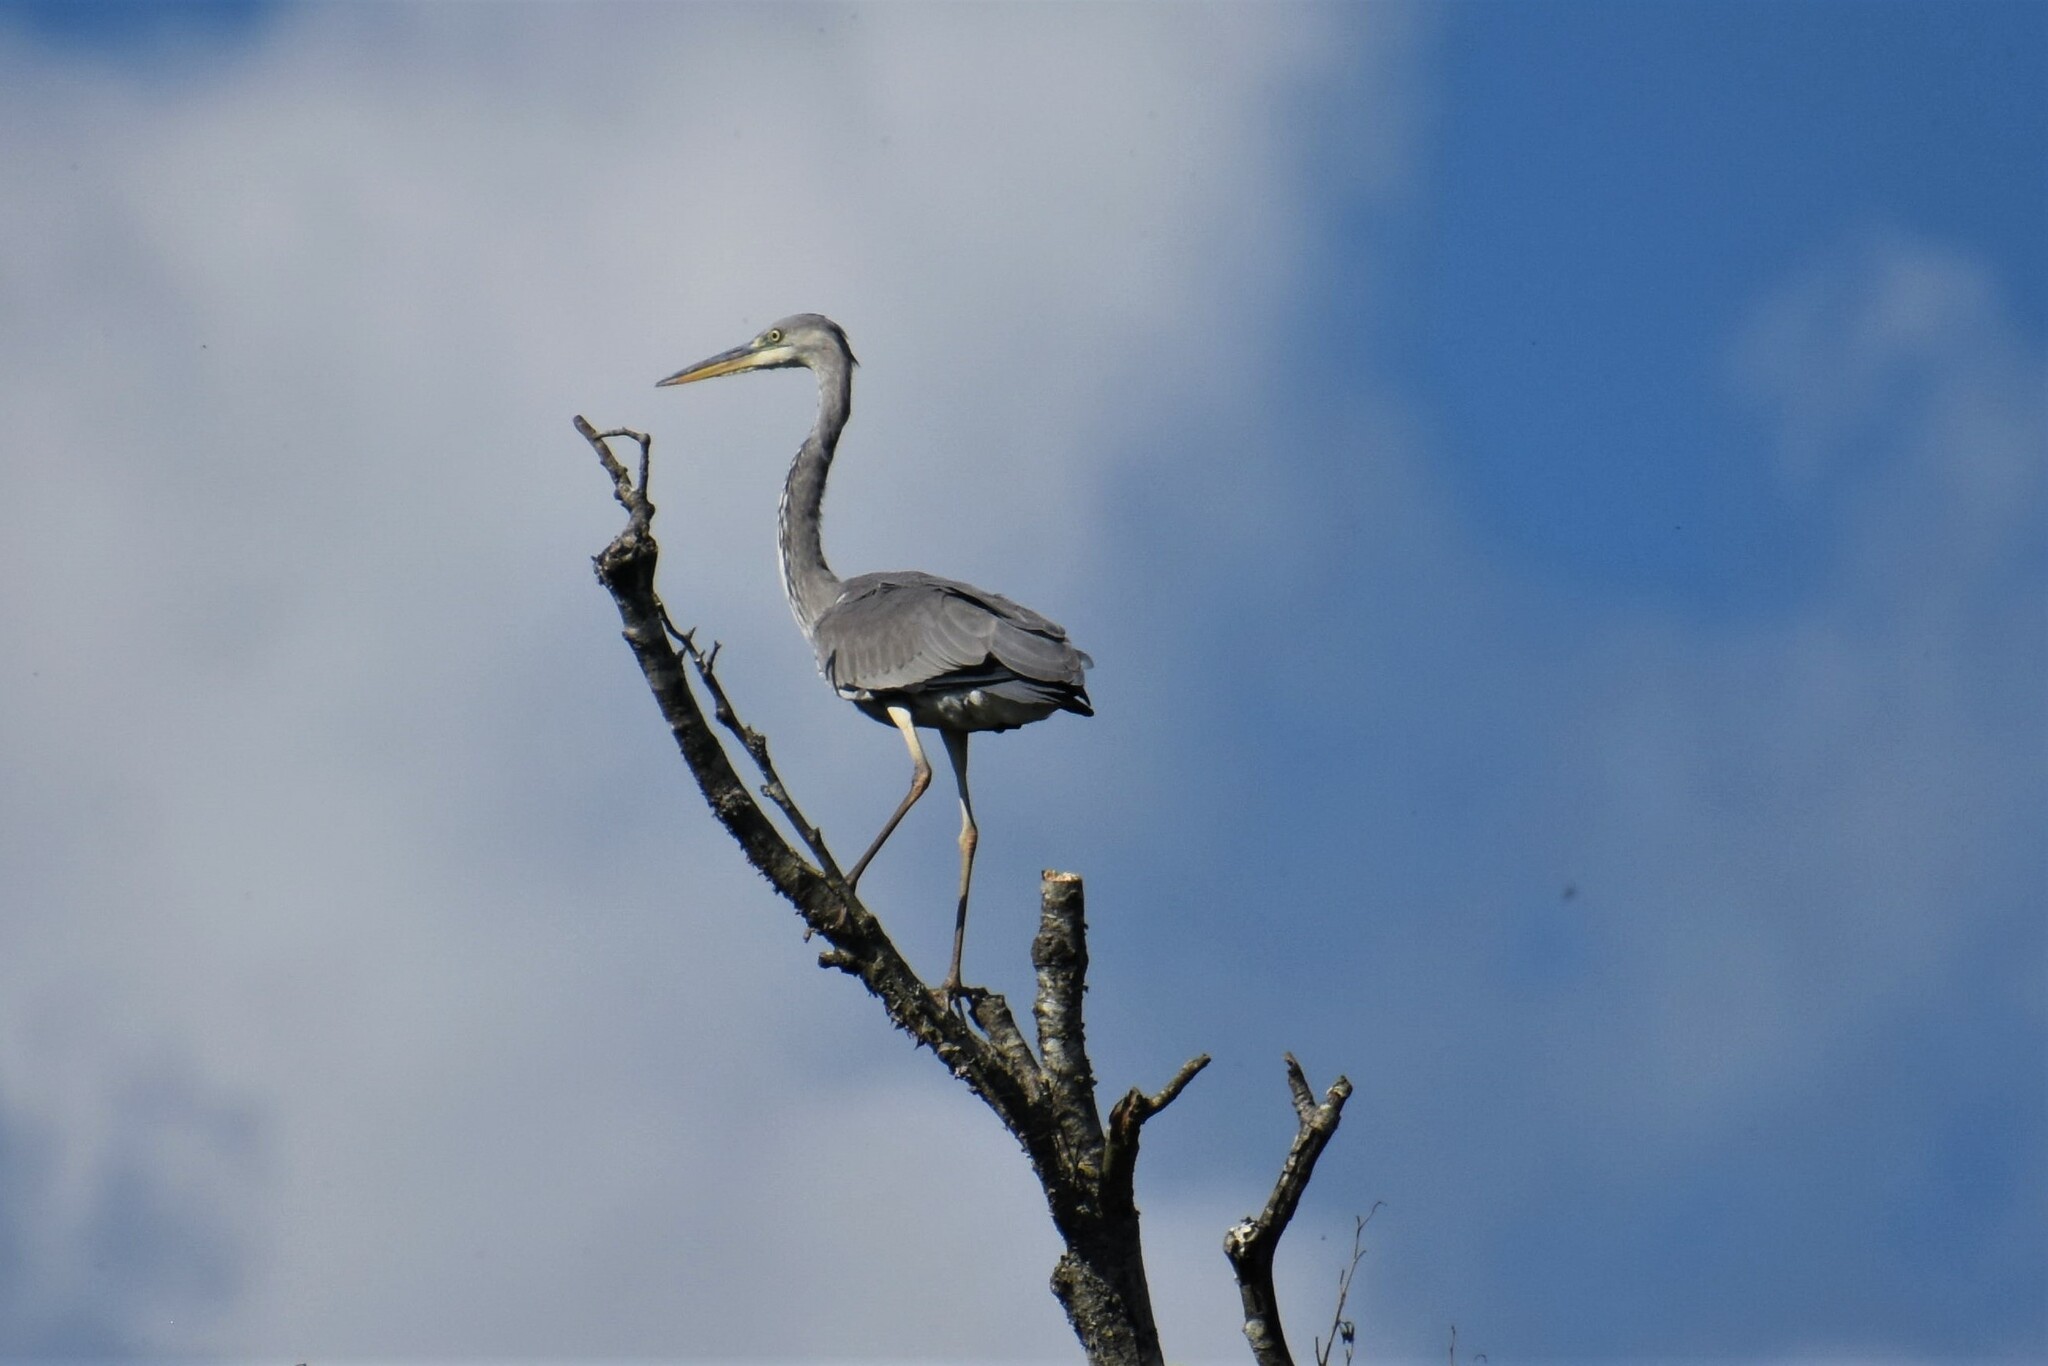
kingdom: Animalia
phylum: Chordata
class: Aves
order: Pelecaniformes
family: Ardeidae
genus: Ardea
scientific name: Ardea cinerea
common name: Grey heron
